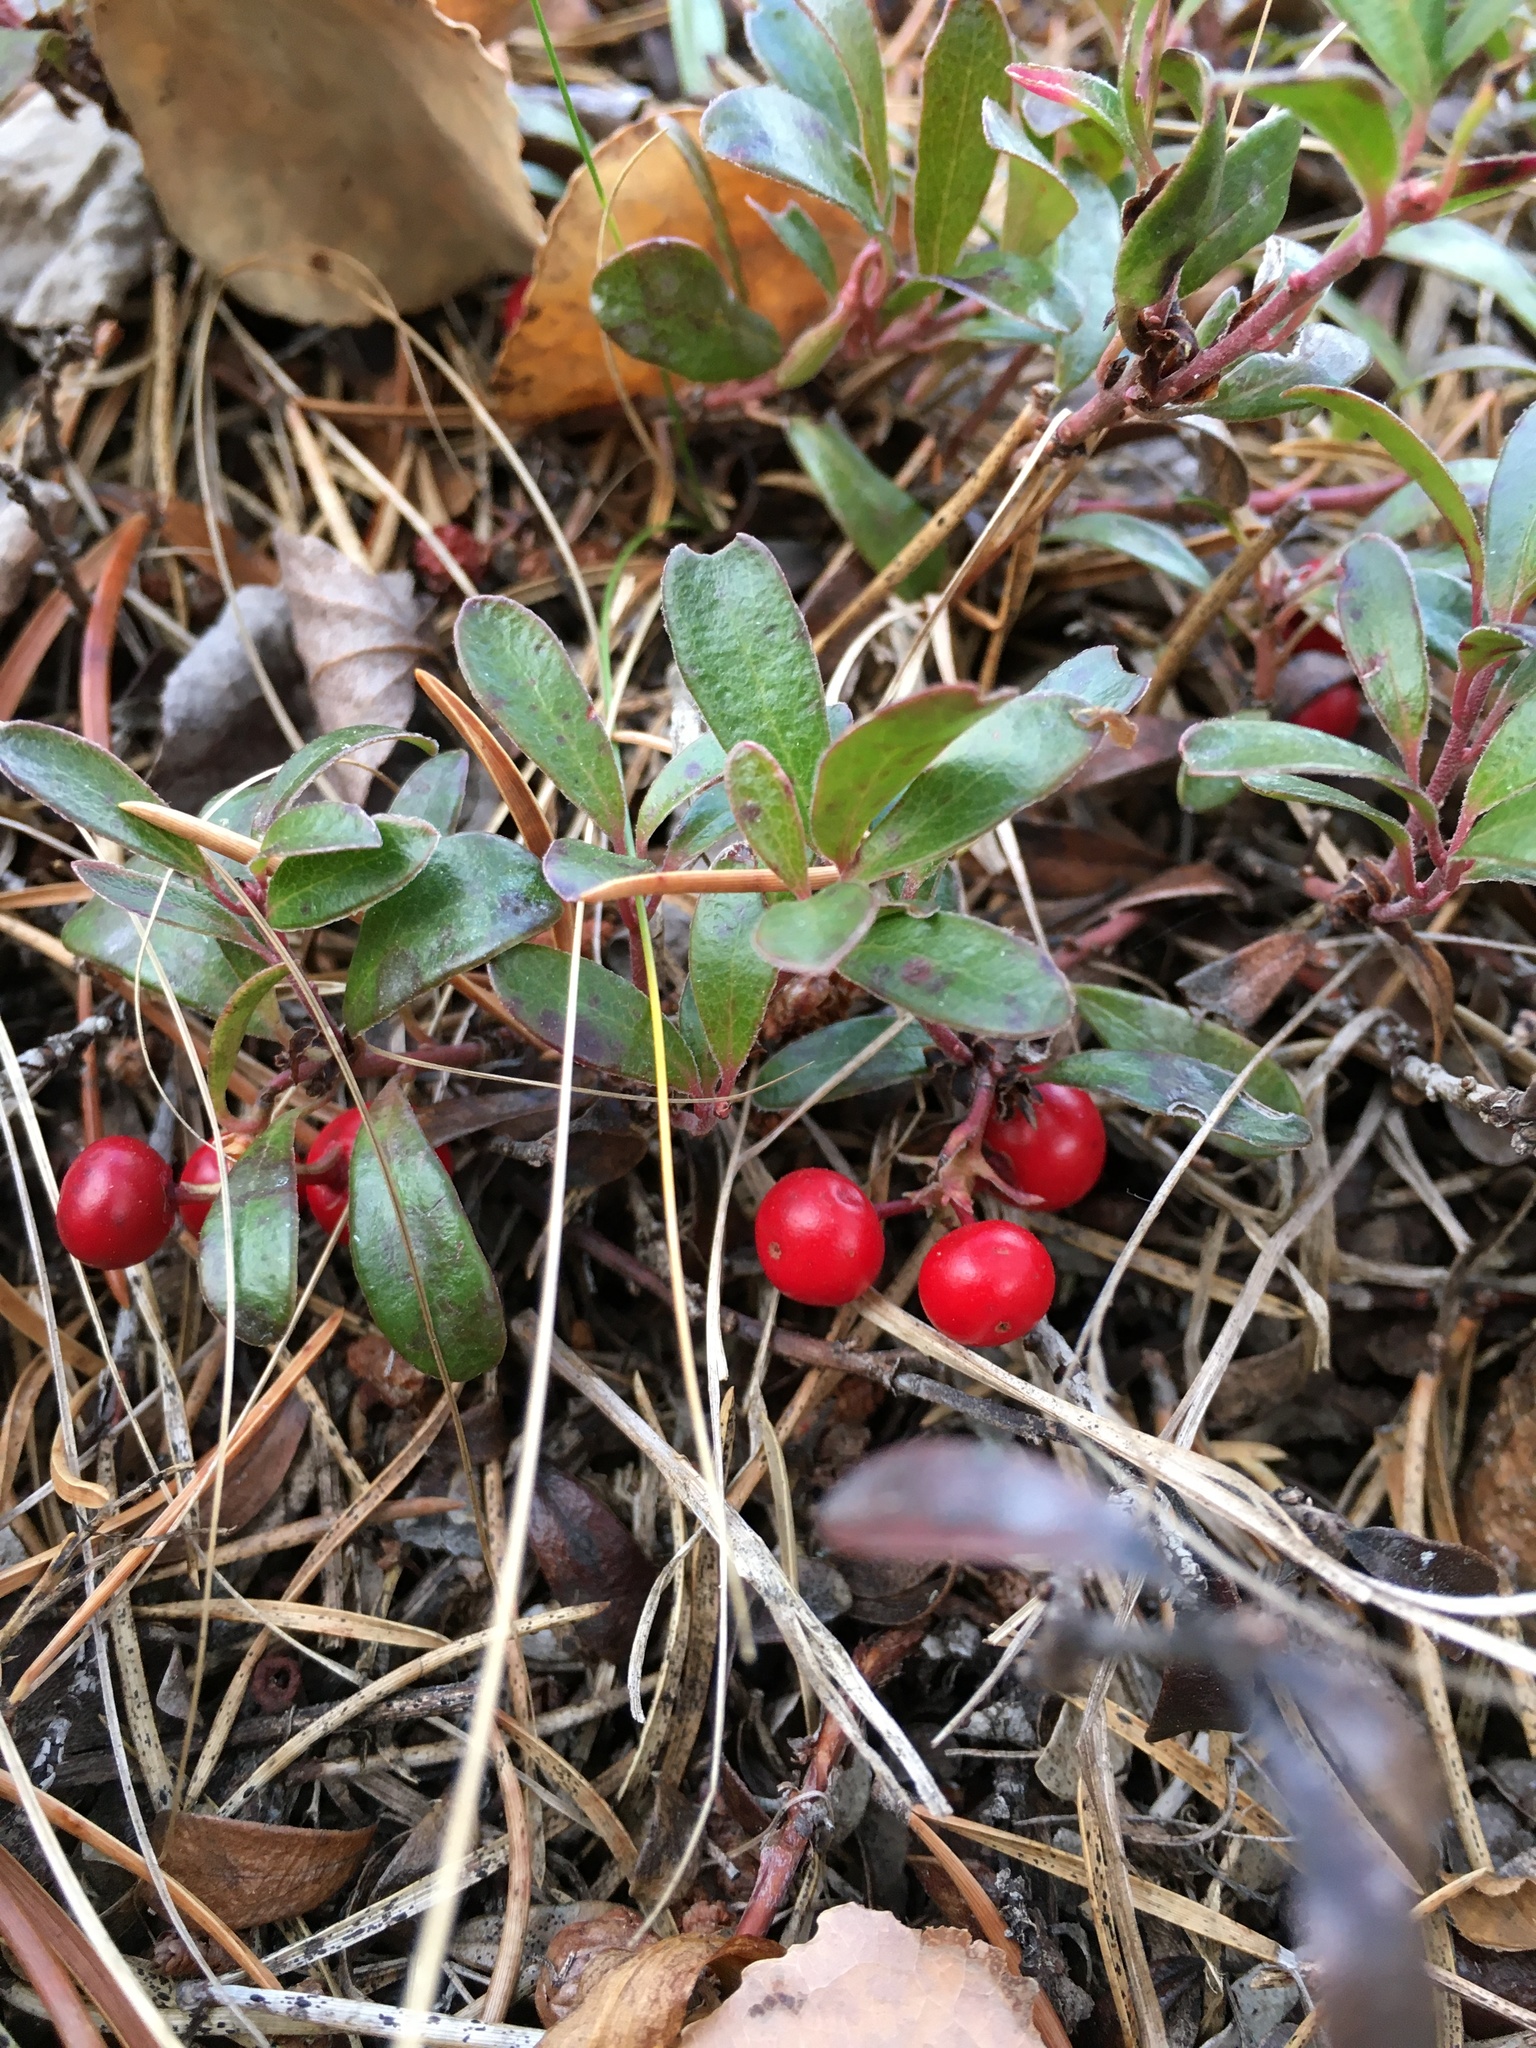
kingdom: Plantae
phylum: Tracheophyta
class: Magnoliopsida
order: Ericales
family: Ericaceae
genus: Arctostaphylos
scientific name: Arctostaphylos uva-ursi
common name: Bearberry
